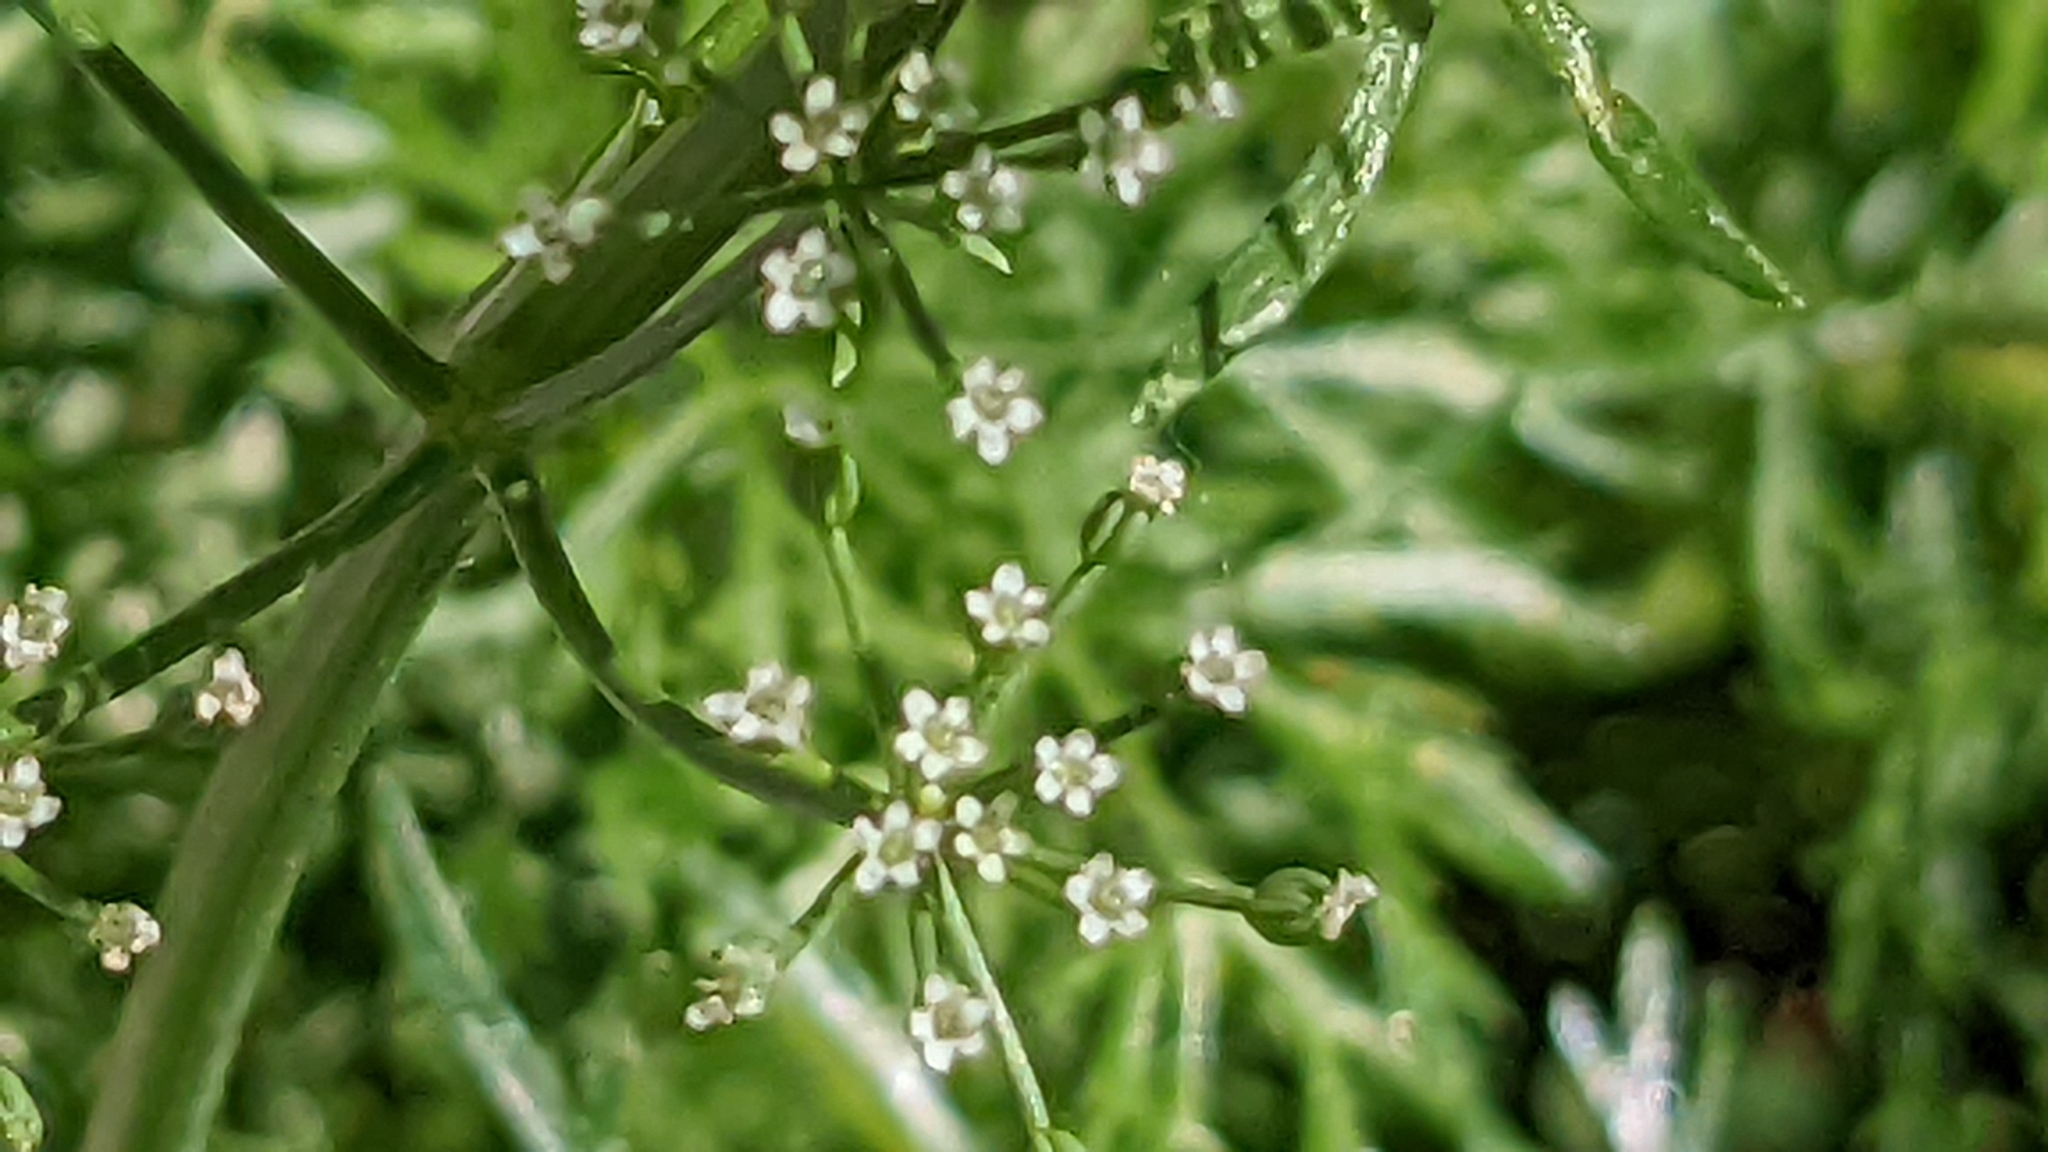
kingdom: Plantae
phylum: Tracheophyta
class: Magnoliopsida
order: Apiales
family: Apiaceae
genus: Cyclospermum
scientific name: Cyclospermum leptophyllum
